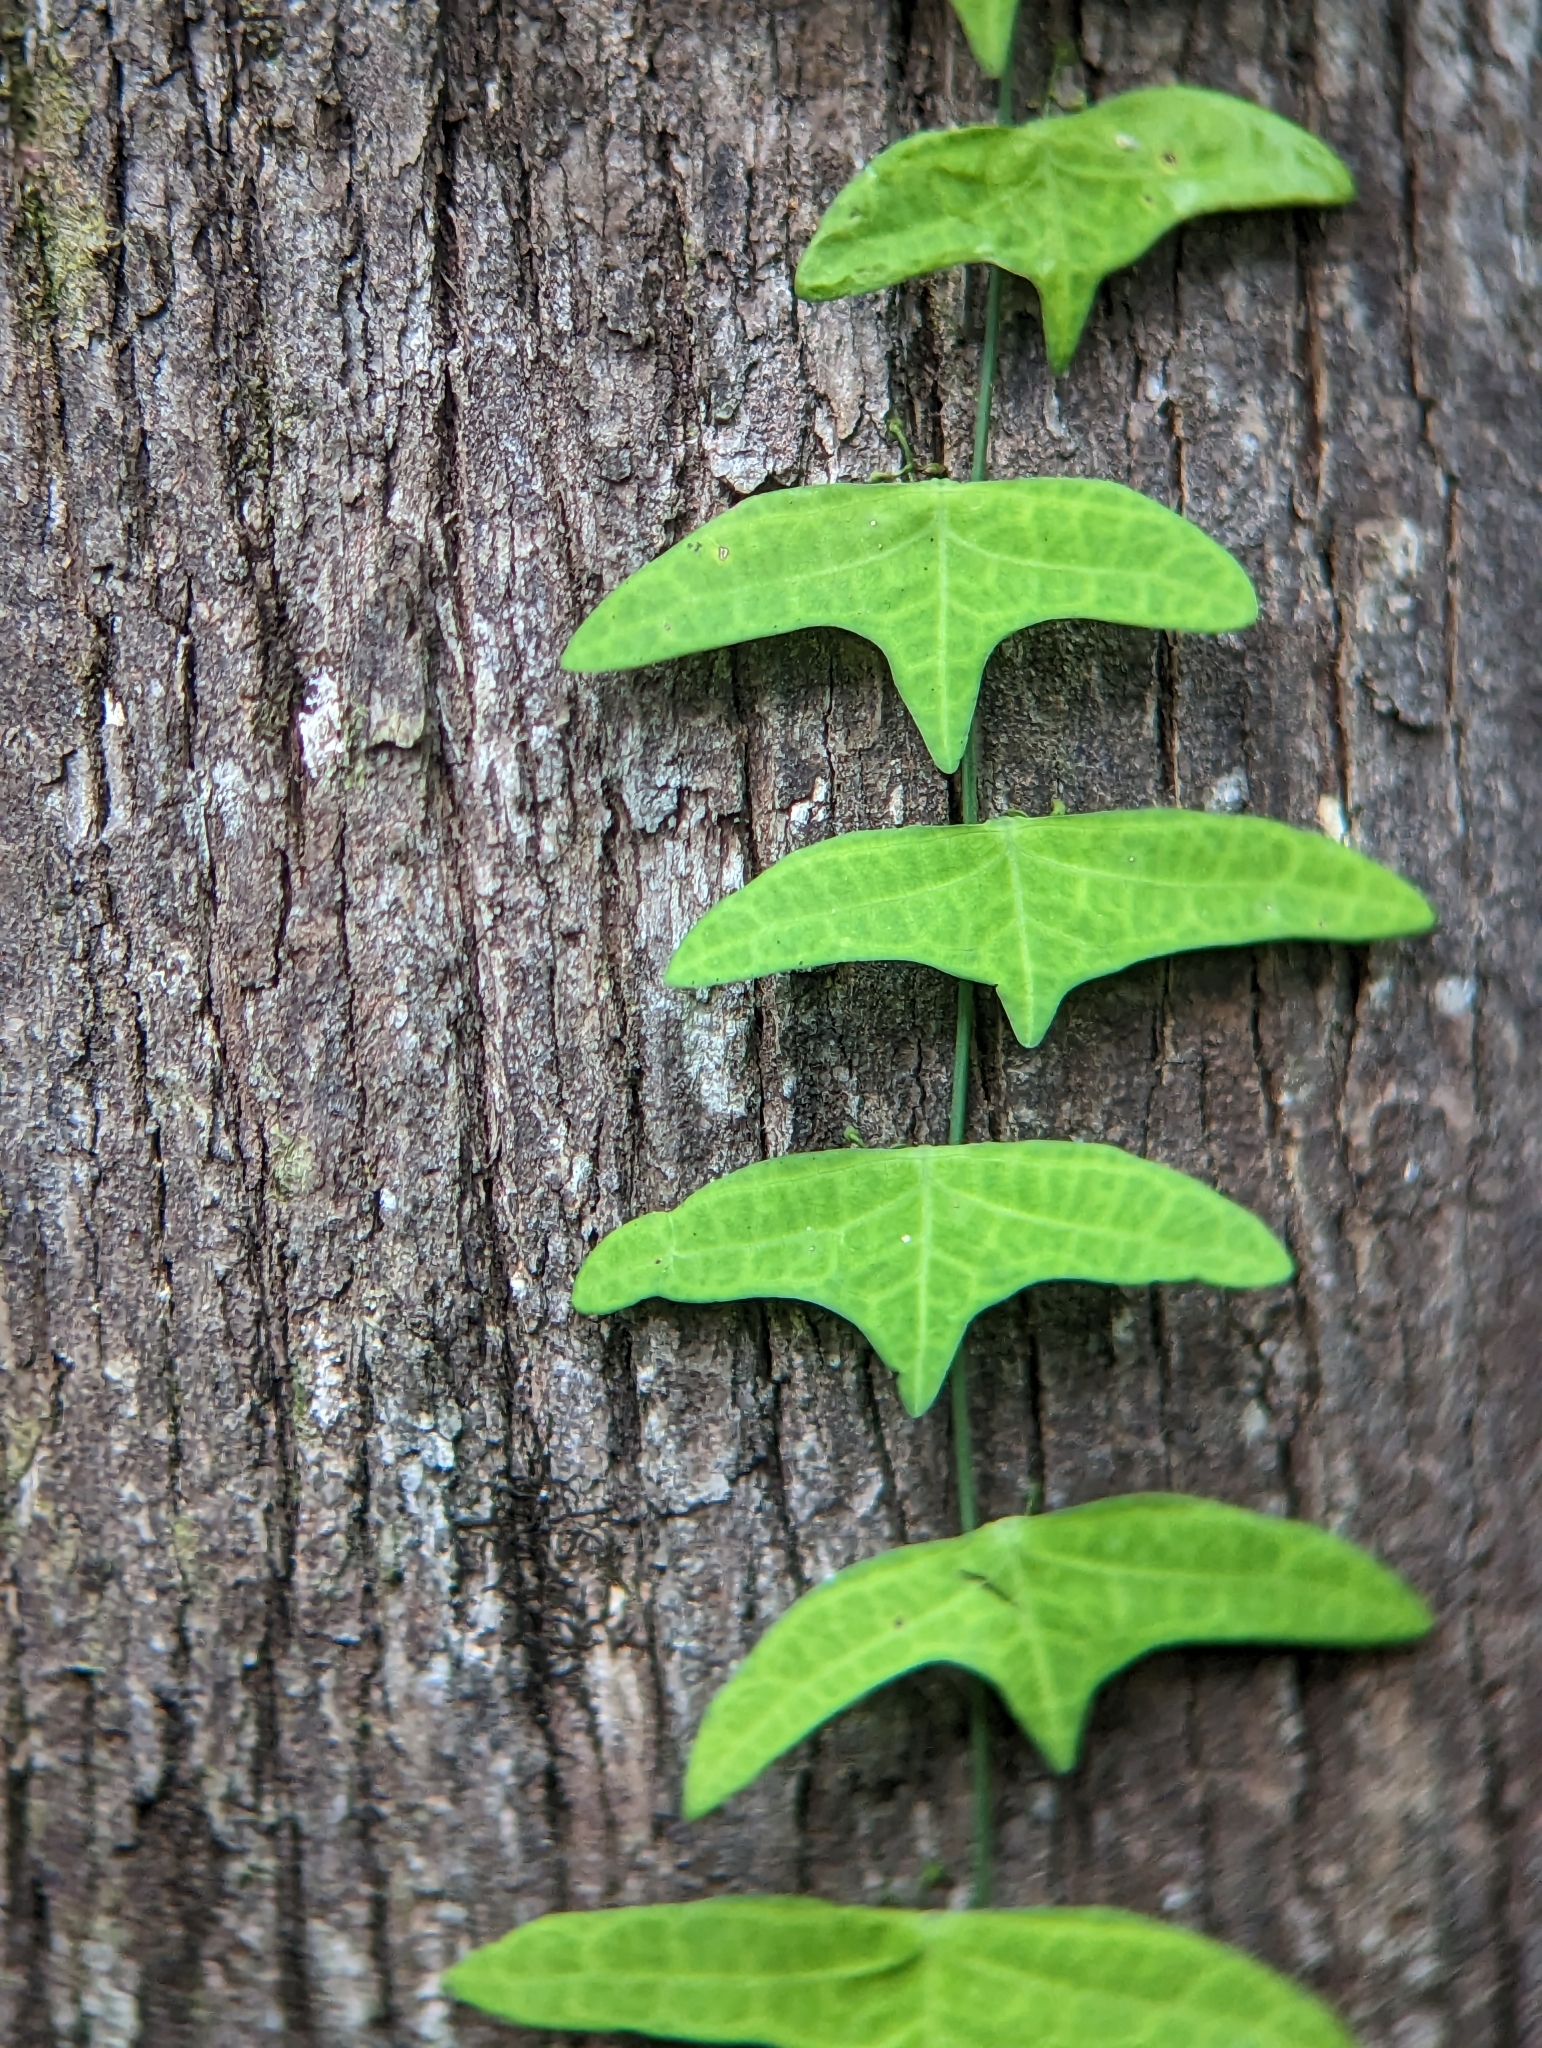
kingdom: Plantae
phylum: Tracheophyta
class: Magnoliopsida
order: Malpighiales
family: Passifloraceae
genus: Adenia
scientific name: Adenia cordifolia
